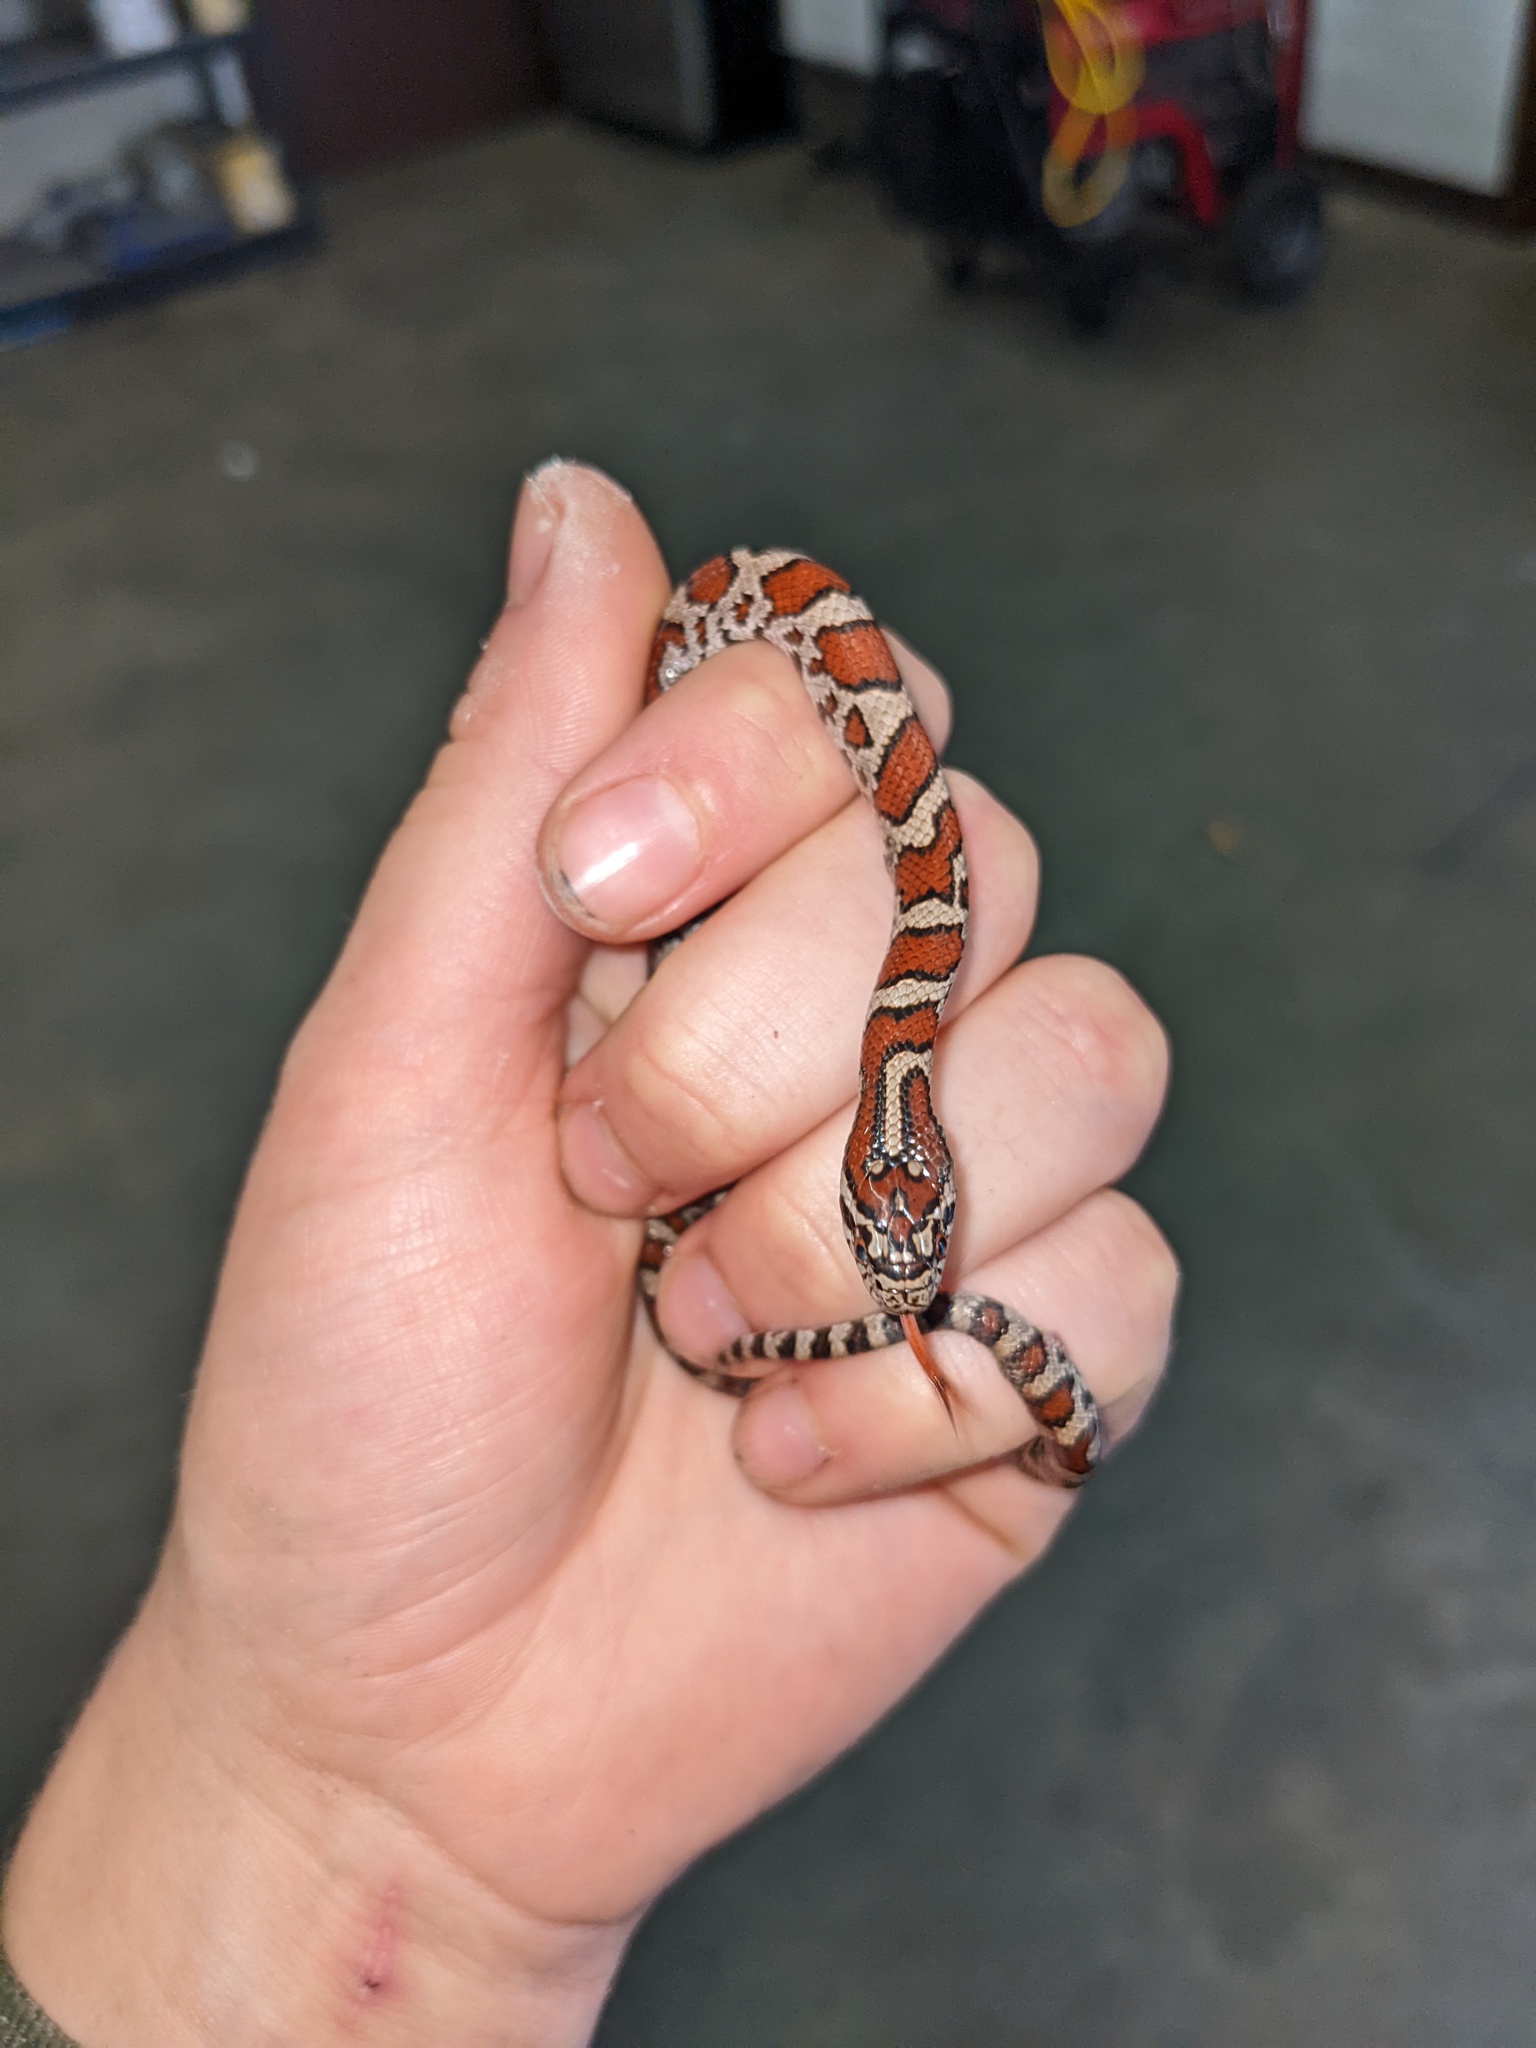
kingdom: Animalia
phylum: Chordata
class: Squamata
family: Colubridae
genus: Lampropeltis
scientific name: Lampropeltis triangulum
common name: Eastern milksnake
